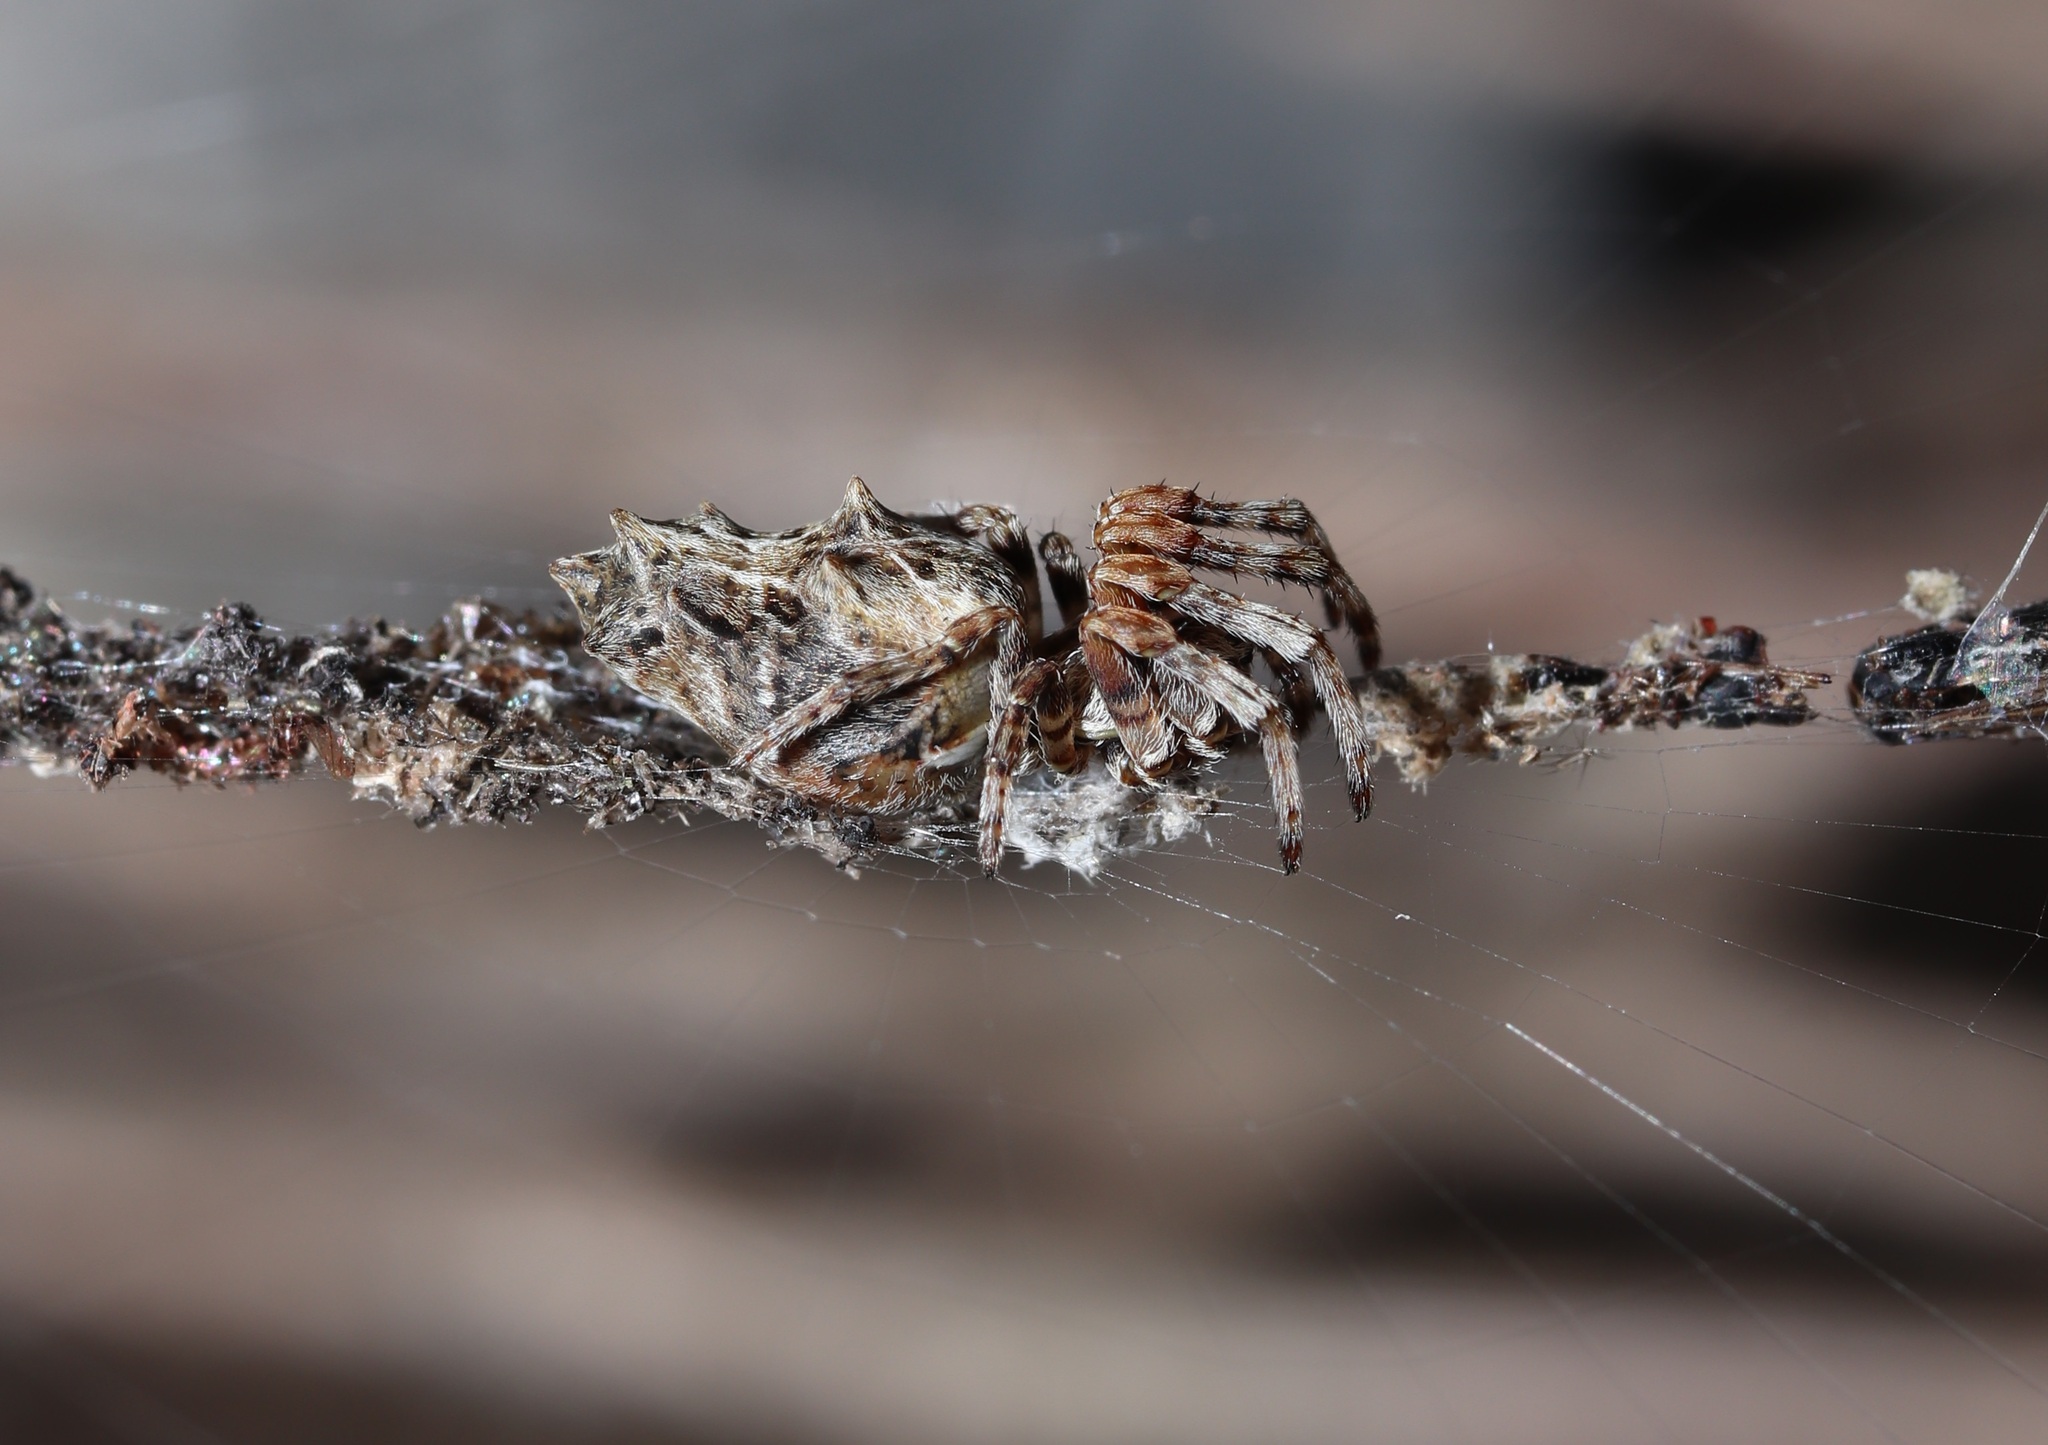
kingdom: Animalia
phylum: Arthropoda
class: Arachnida
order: Araneae
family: Araneidae
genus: Cyclosa
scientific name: Cyclosa octotuberculata
